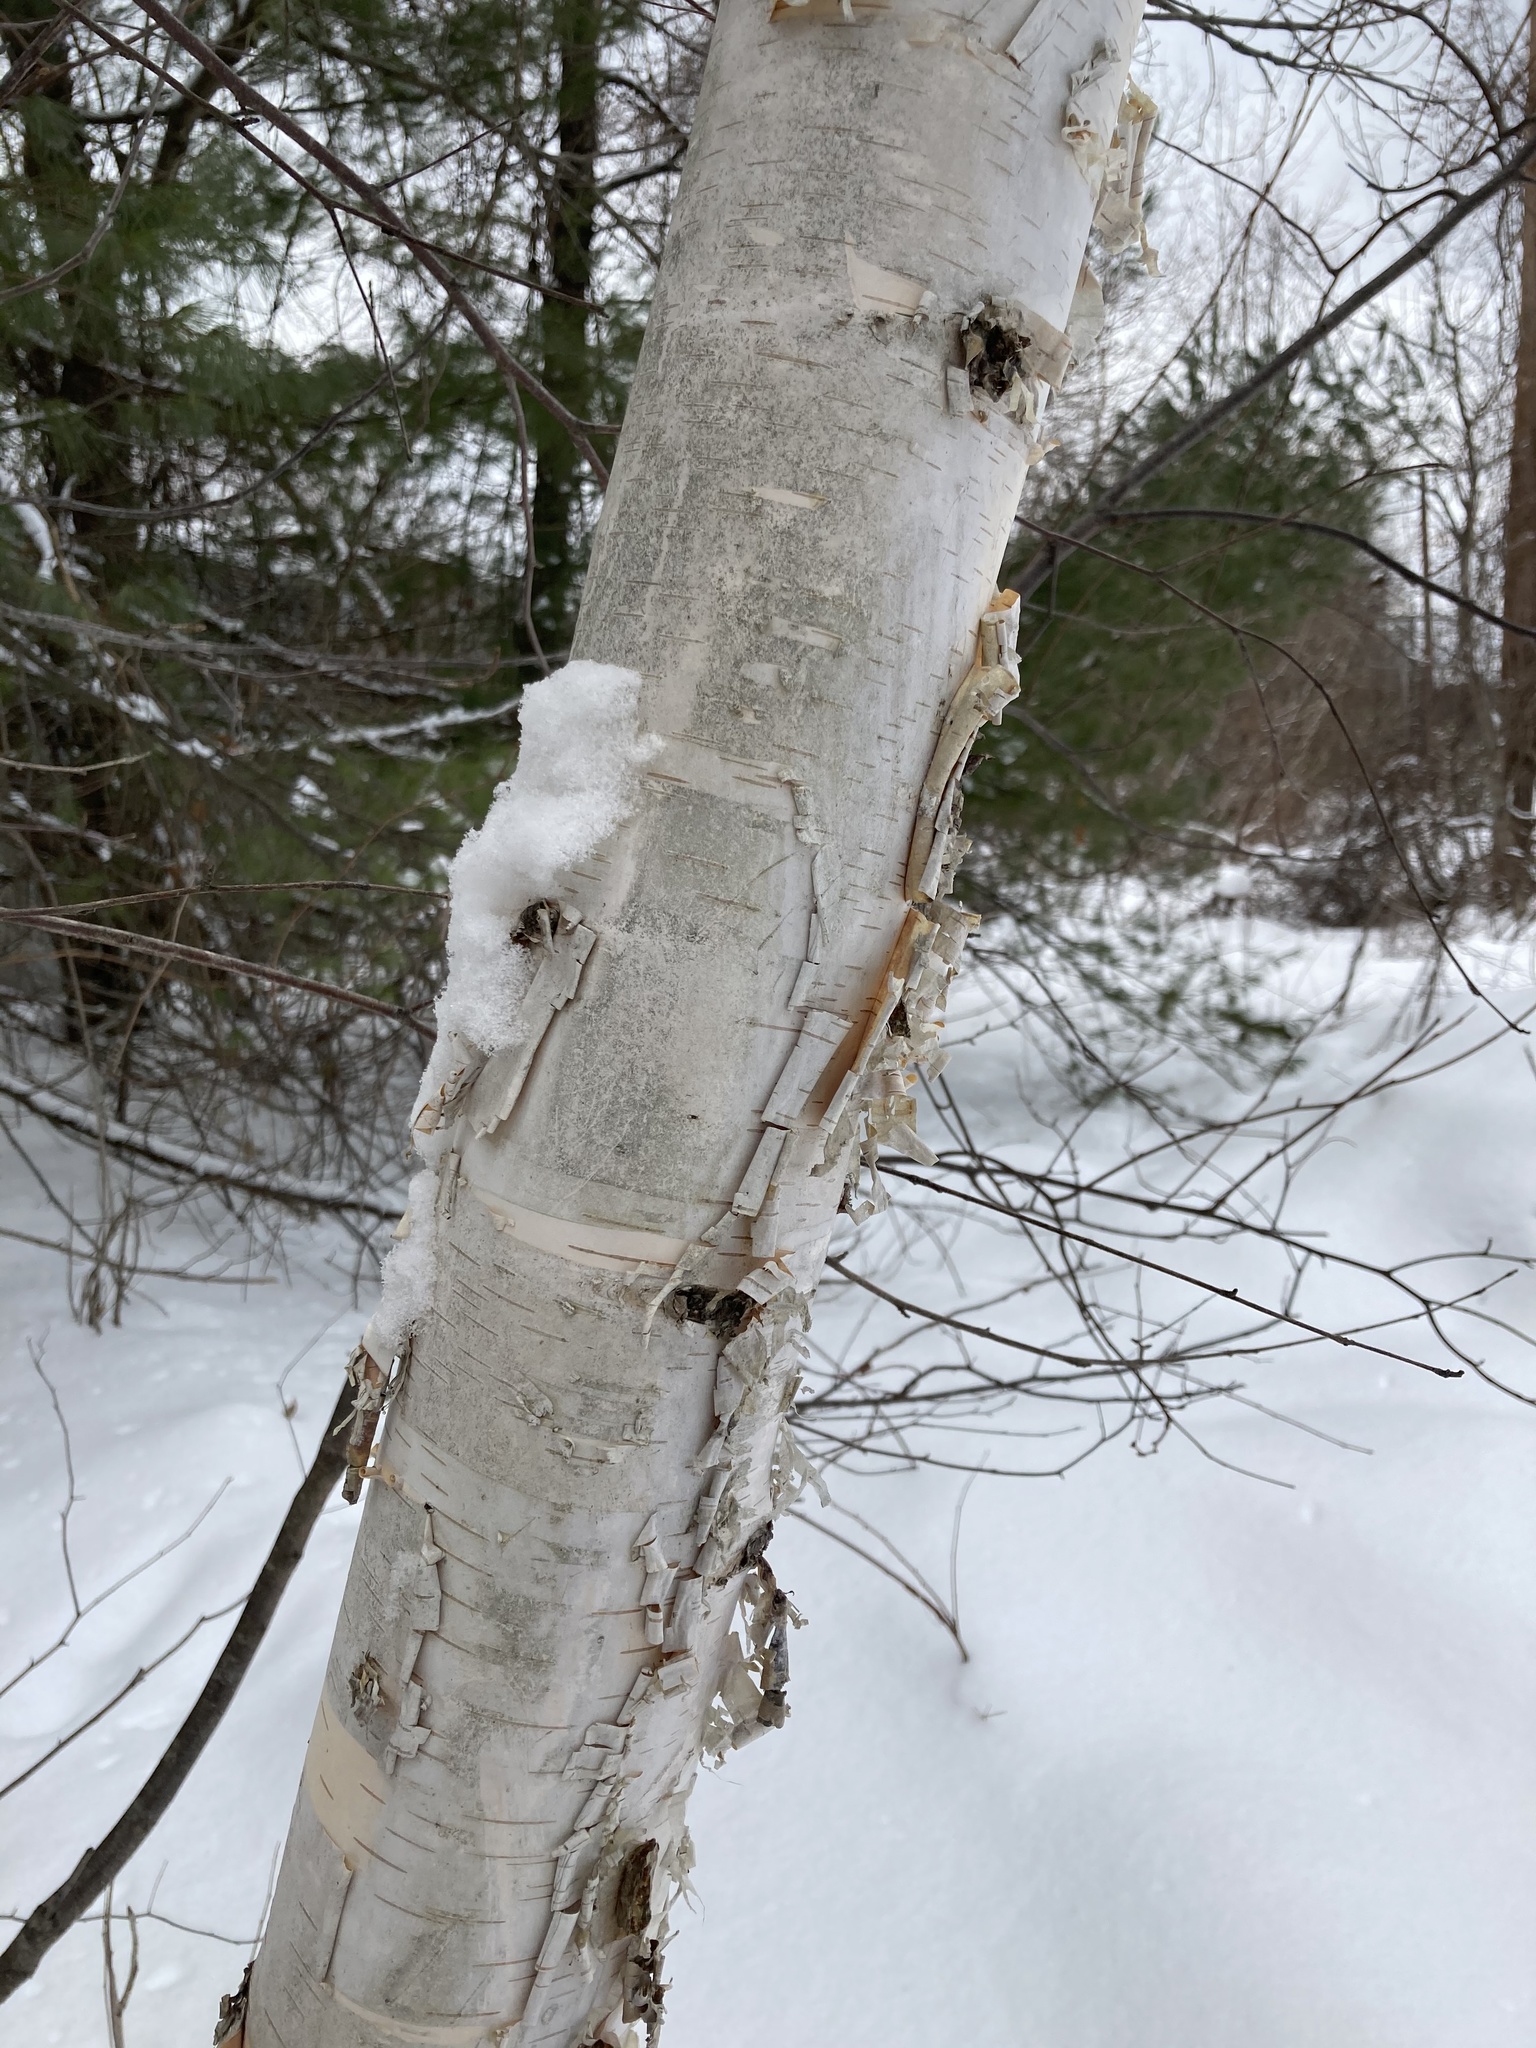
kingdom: Plantae
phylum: Tracheophyta
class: Magnoliopsida
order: Fagales
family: Betulaceae
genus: Betula
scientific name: Betula papyrifera
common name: Paper birch
